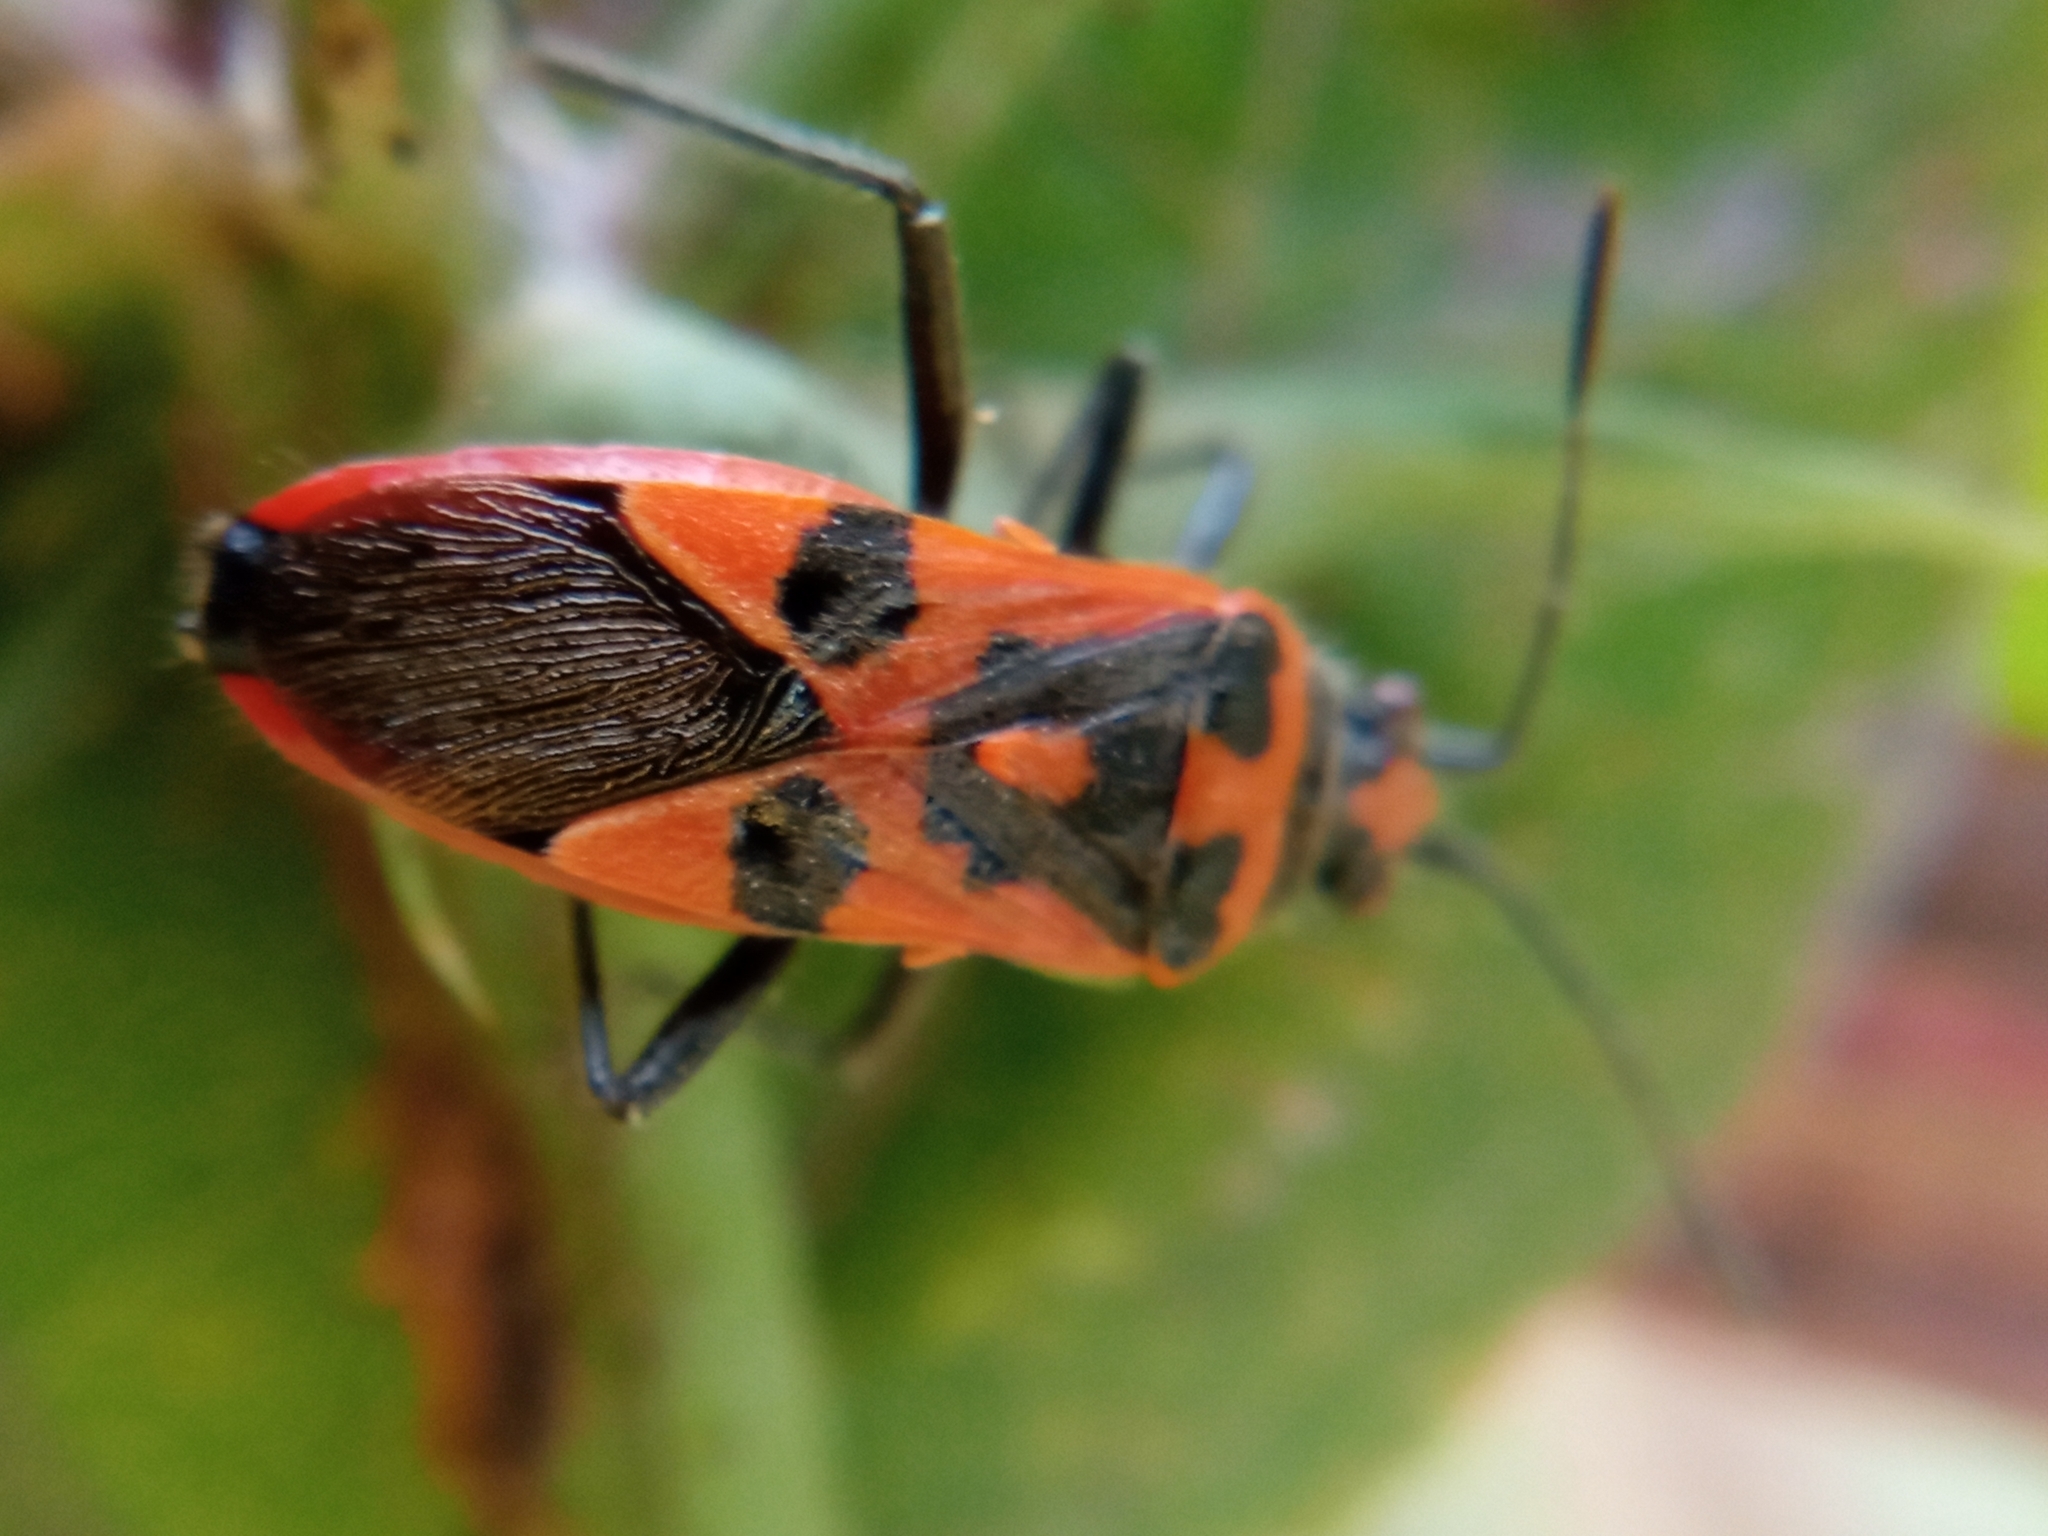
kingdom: Animalia
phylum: Arthropoda
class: Insecta
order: Hemiptera
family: Rhopalidae
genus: Corizus
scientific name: Corizus hyoscyami
